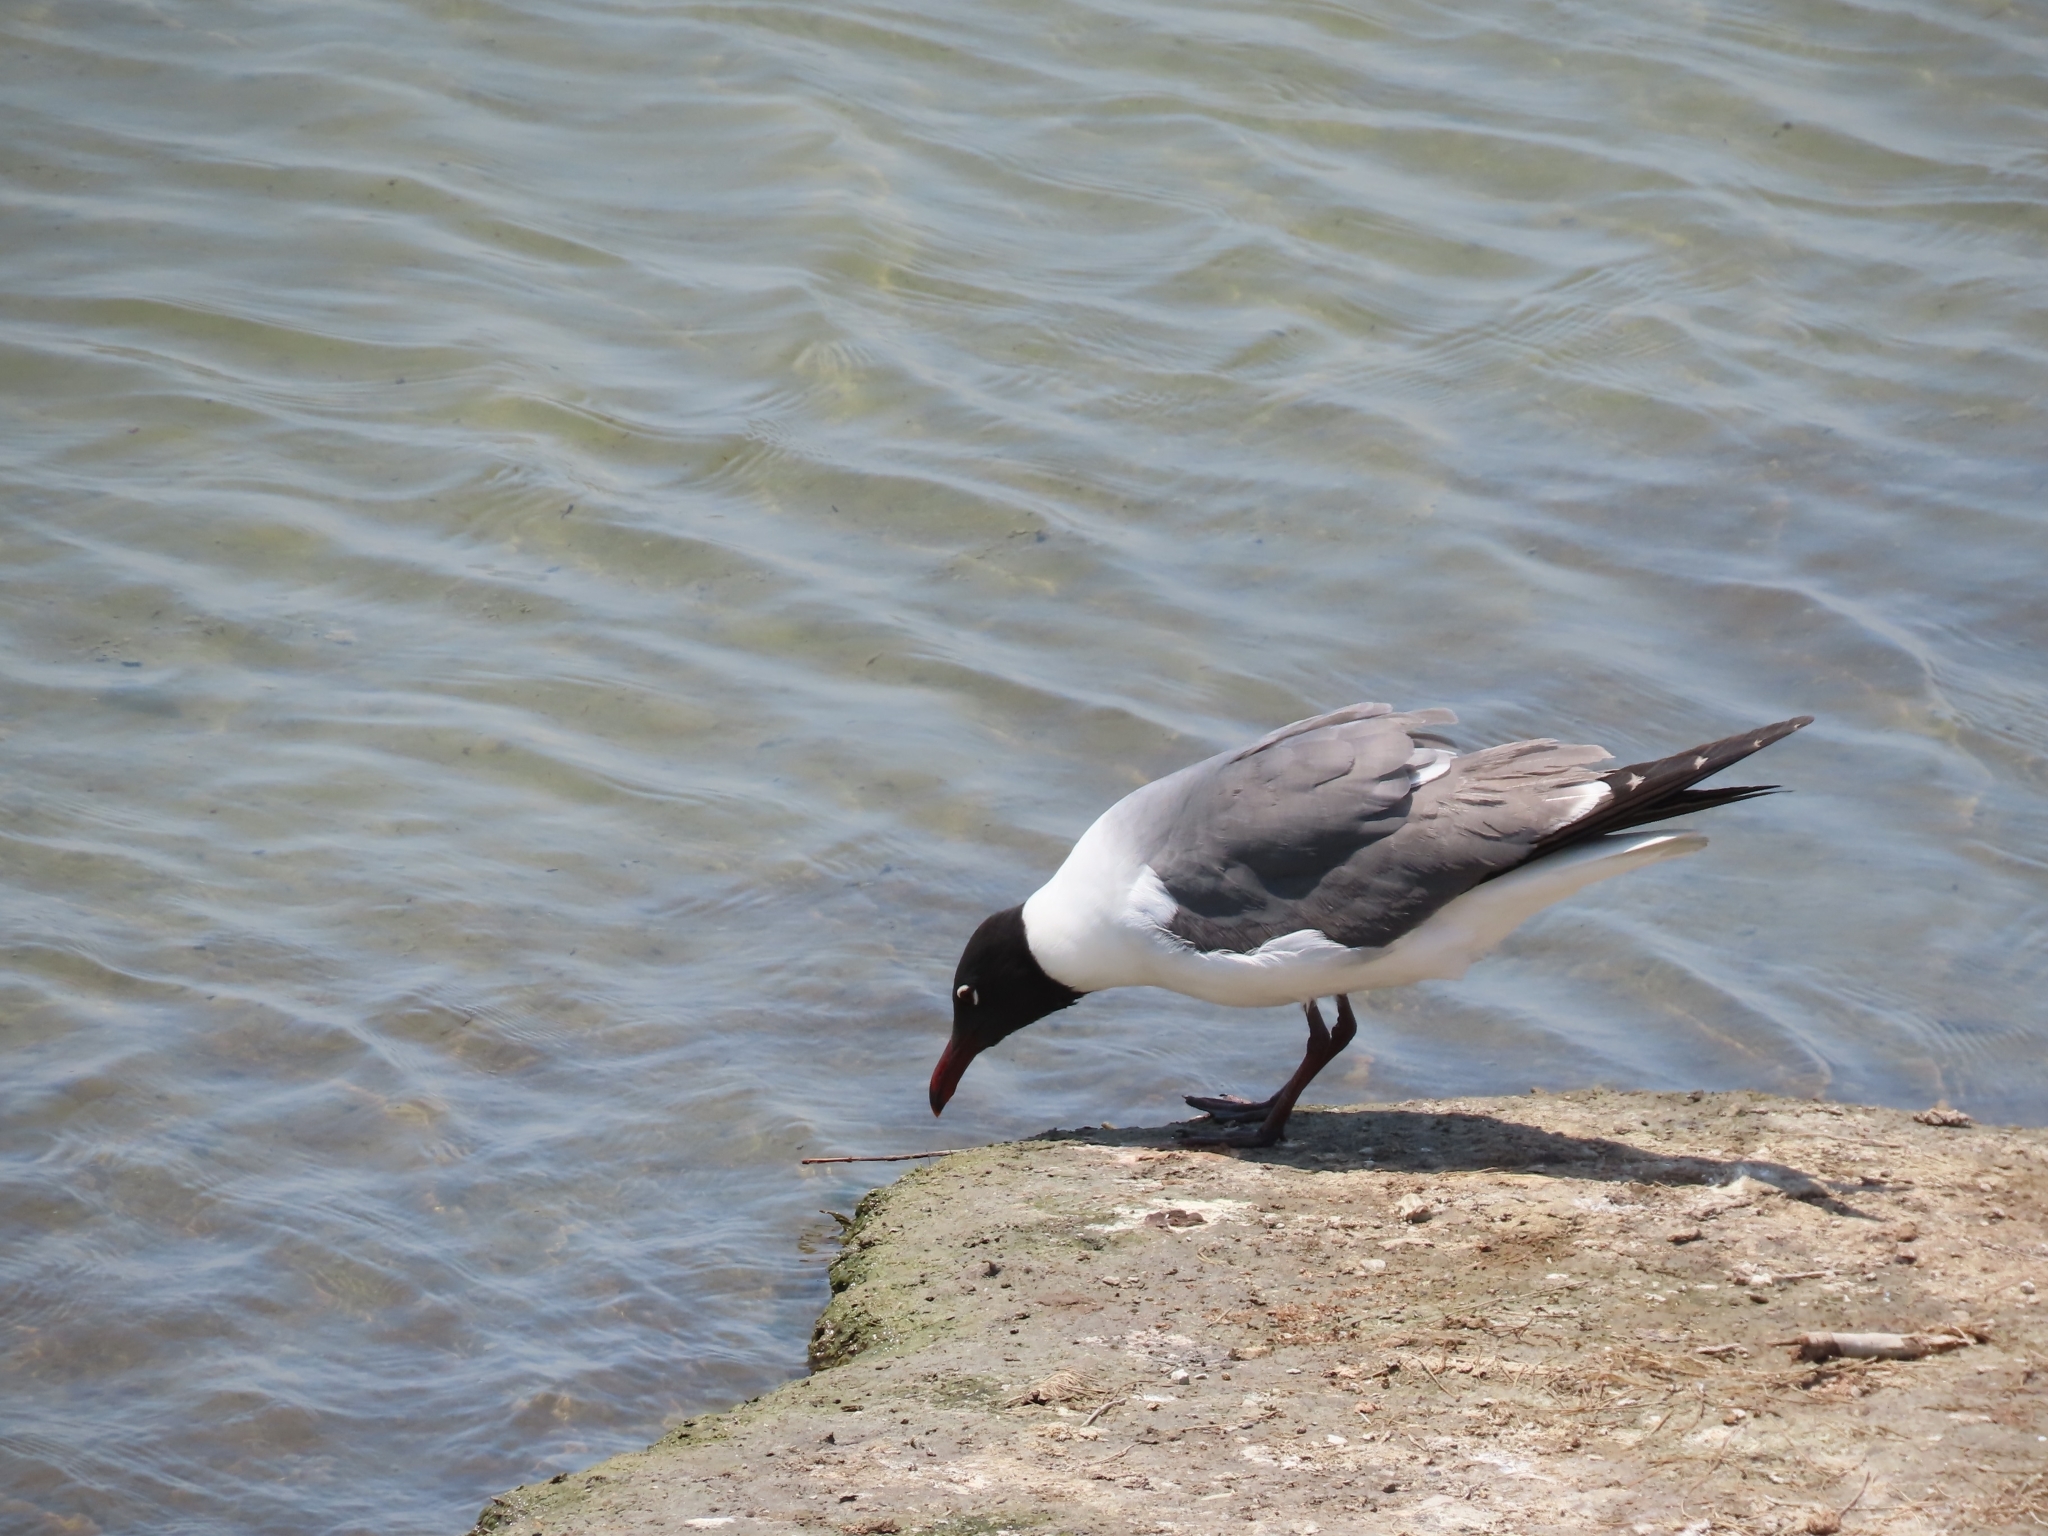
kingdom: Animalia
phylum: Chordata
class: Aves
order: Charadriiformes
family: Laridae
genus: Leucophaeus
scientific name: Leucophaeus atricilla
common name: Laughing gull
